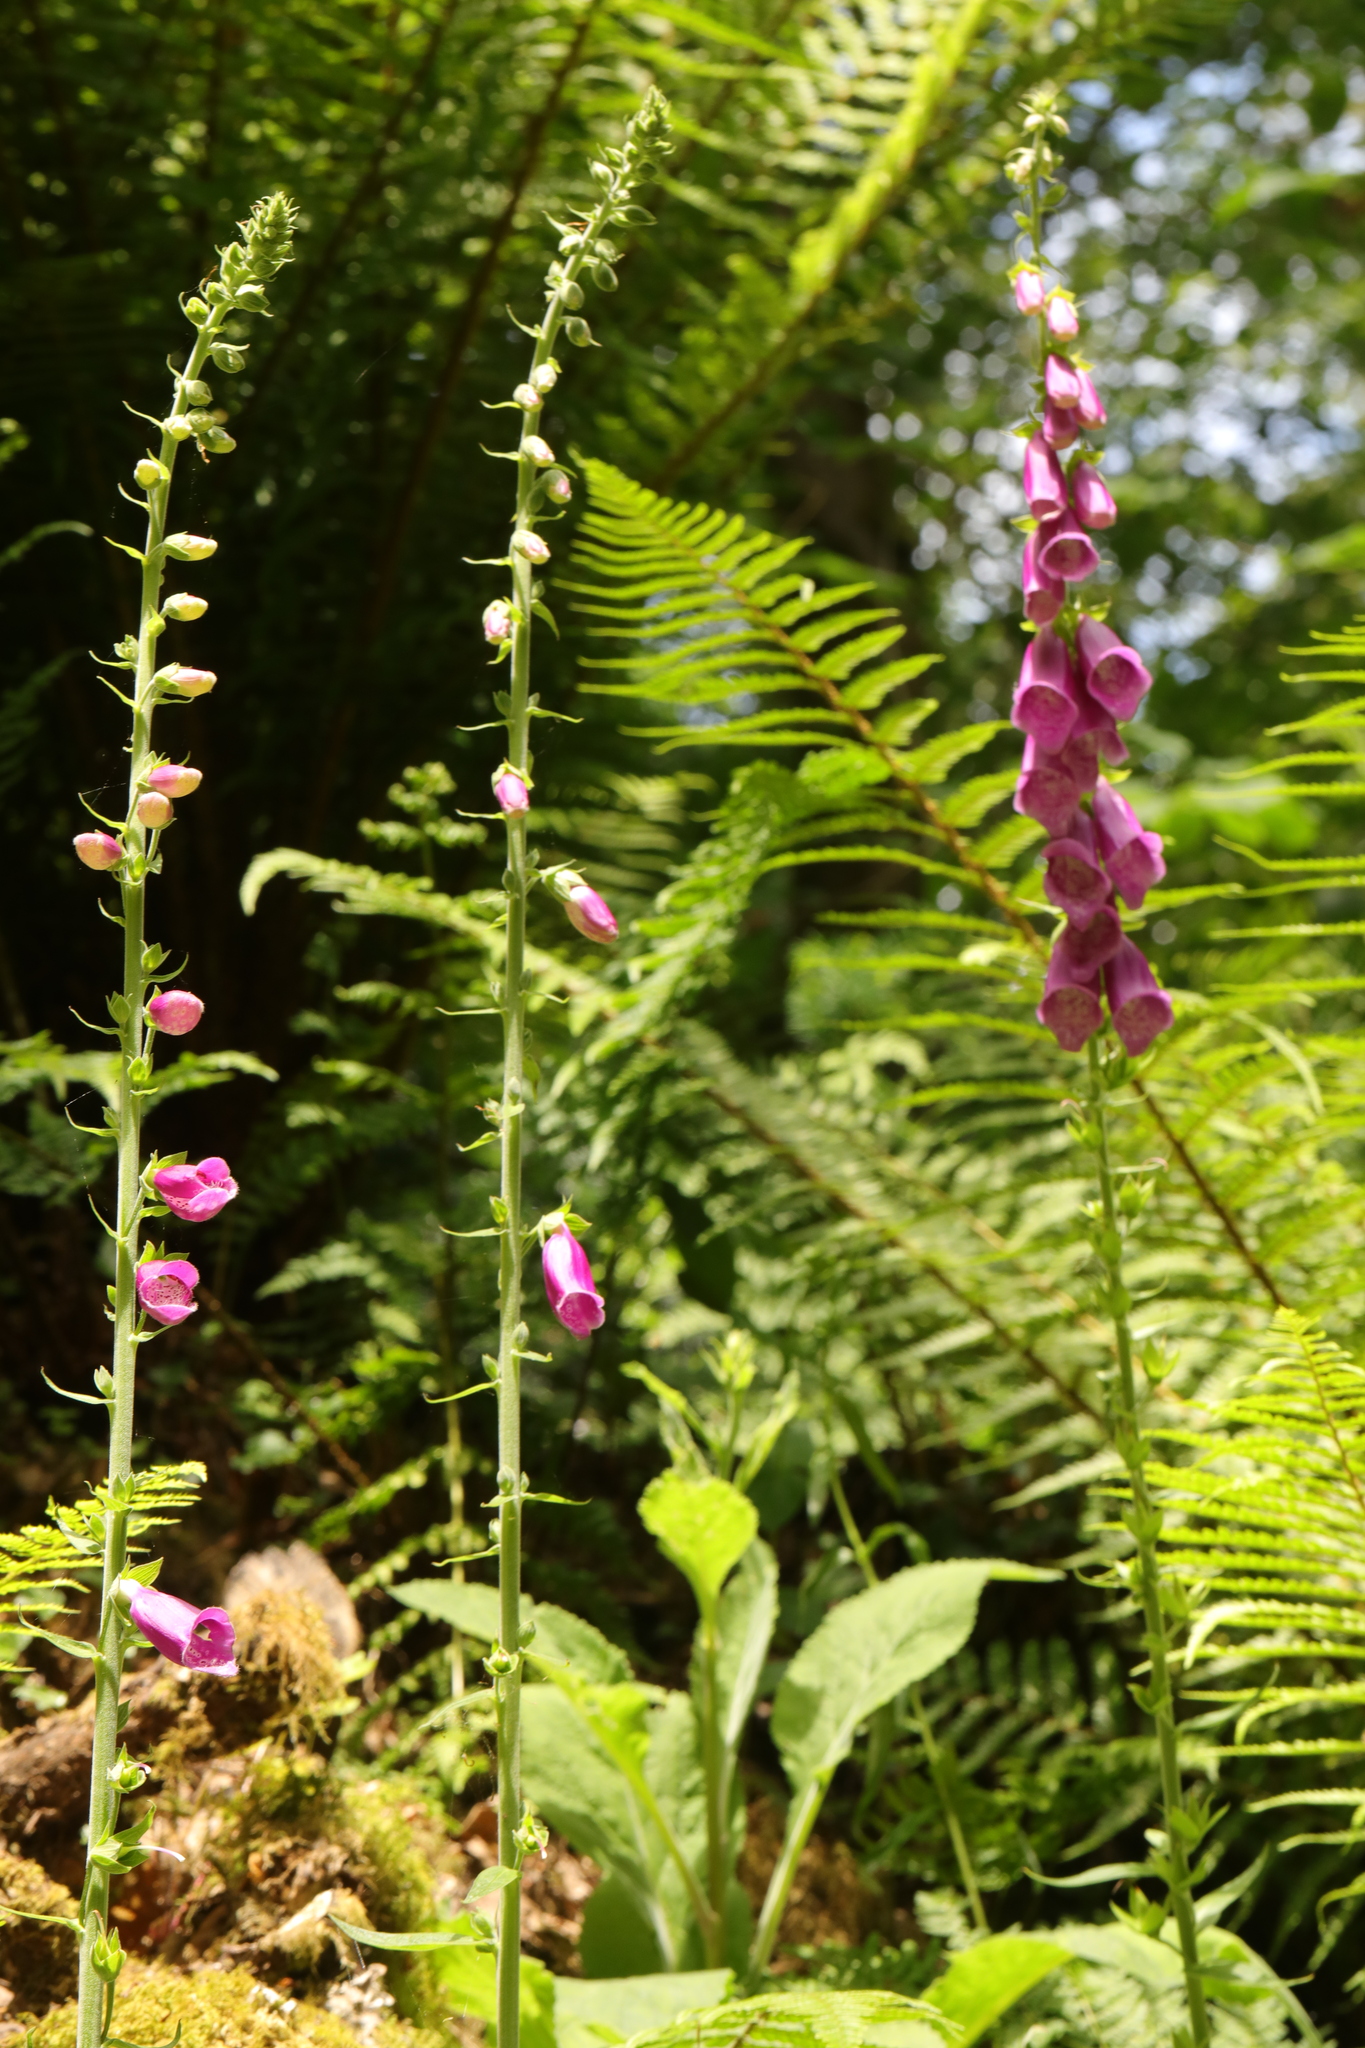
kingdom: Plantae
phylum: Tracheophyta
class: Magnoliopsida
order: Lamiales
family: Plantaginaceae
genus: Digitalis
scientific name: Digitalis purpurea
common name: Foxglove
